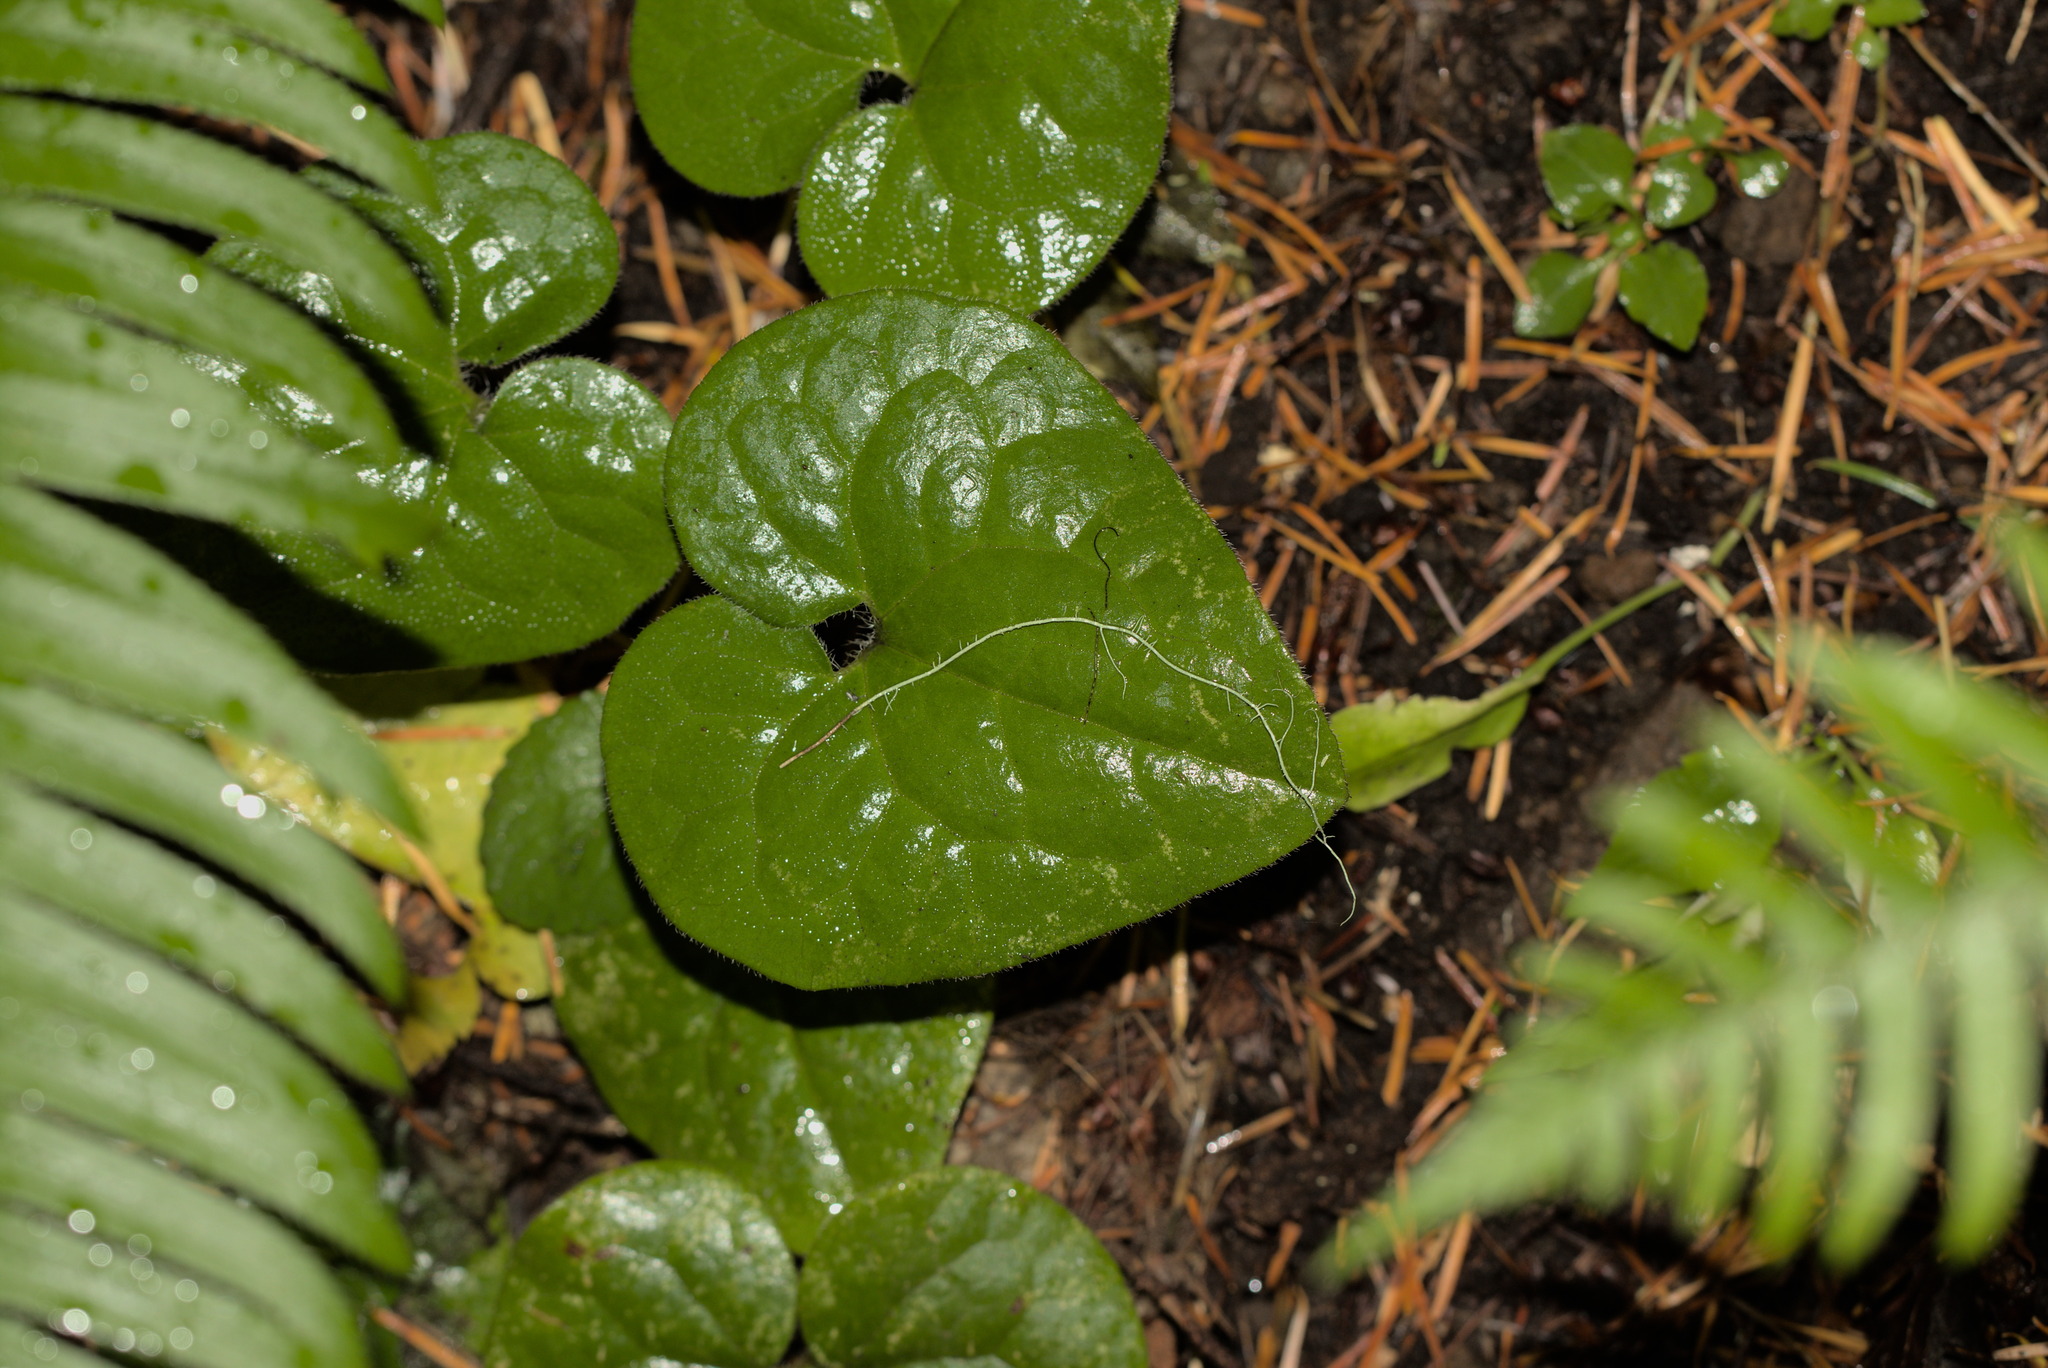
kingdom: Plantae
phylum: Tracheophyta
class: Magnoliopsida
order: Piperales
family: Aristolochiaceae
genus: Asarum
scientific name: Asarum caudatum
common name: Wild ginger
